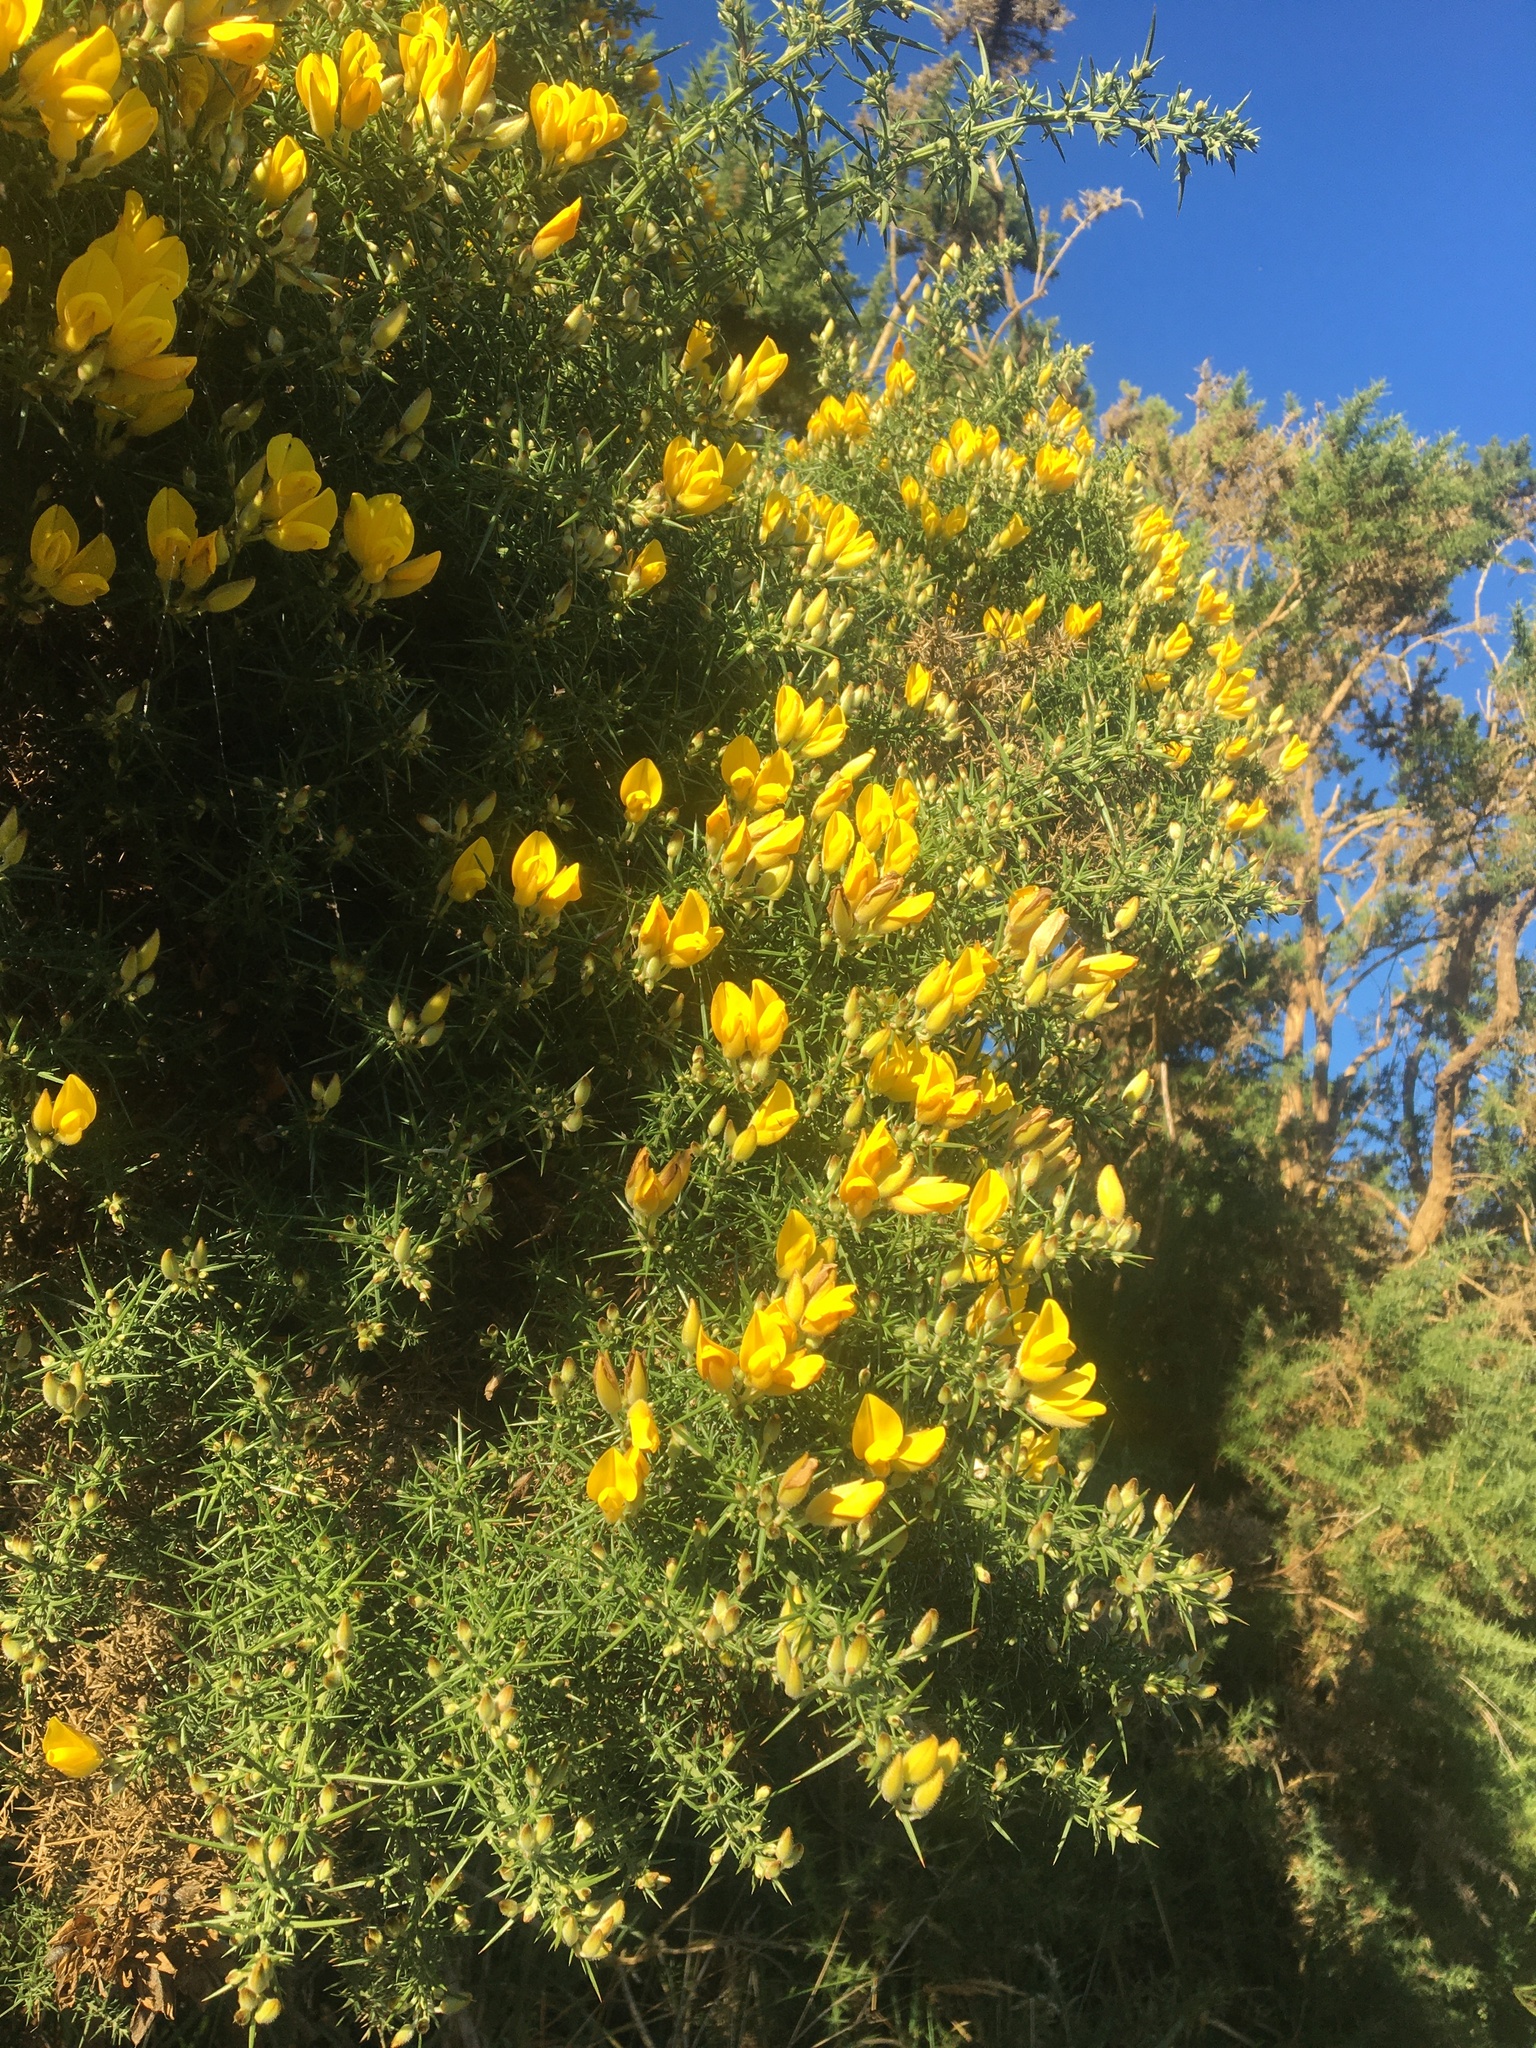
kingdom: Plantae
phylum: Tracheophyta
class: Magnoliopsida
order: Fabales
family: Fabaceae
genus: Ulex
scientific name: Ulex europaeus
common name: Common gorse
